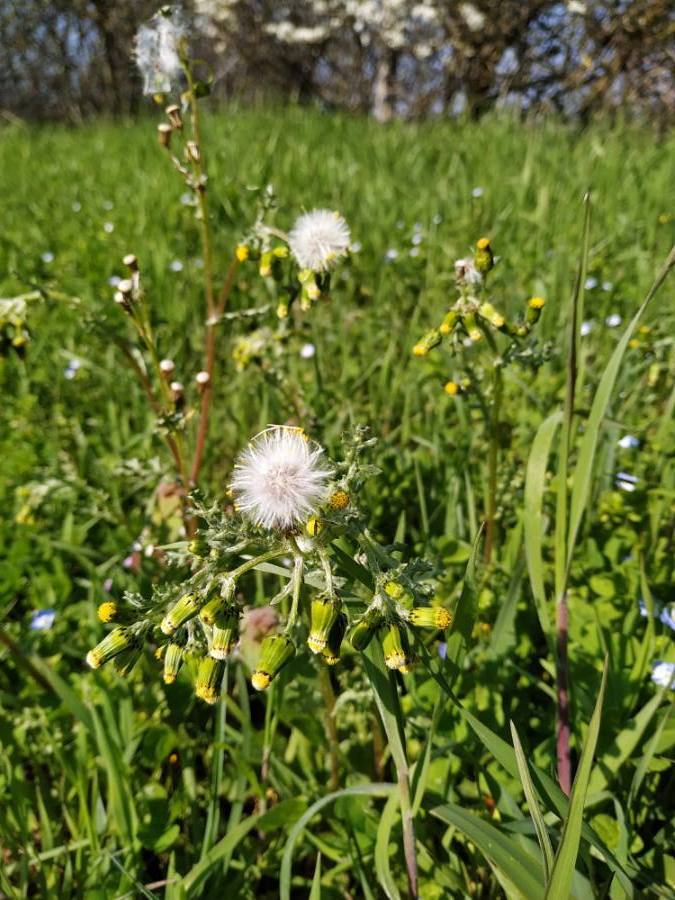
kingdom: Plantae
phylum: Tracheophyta
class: Magnoliopsida
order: Asterales
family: Asteraceae
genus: Senecio
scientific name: Senecio vulgaris
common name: Old-man-in-the-spring
